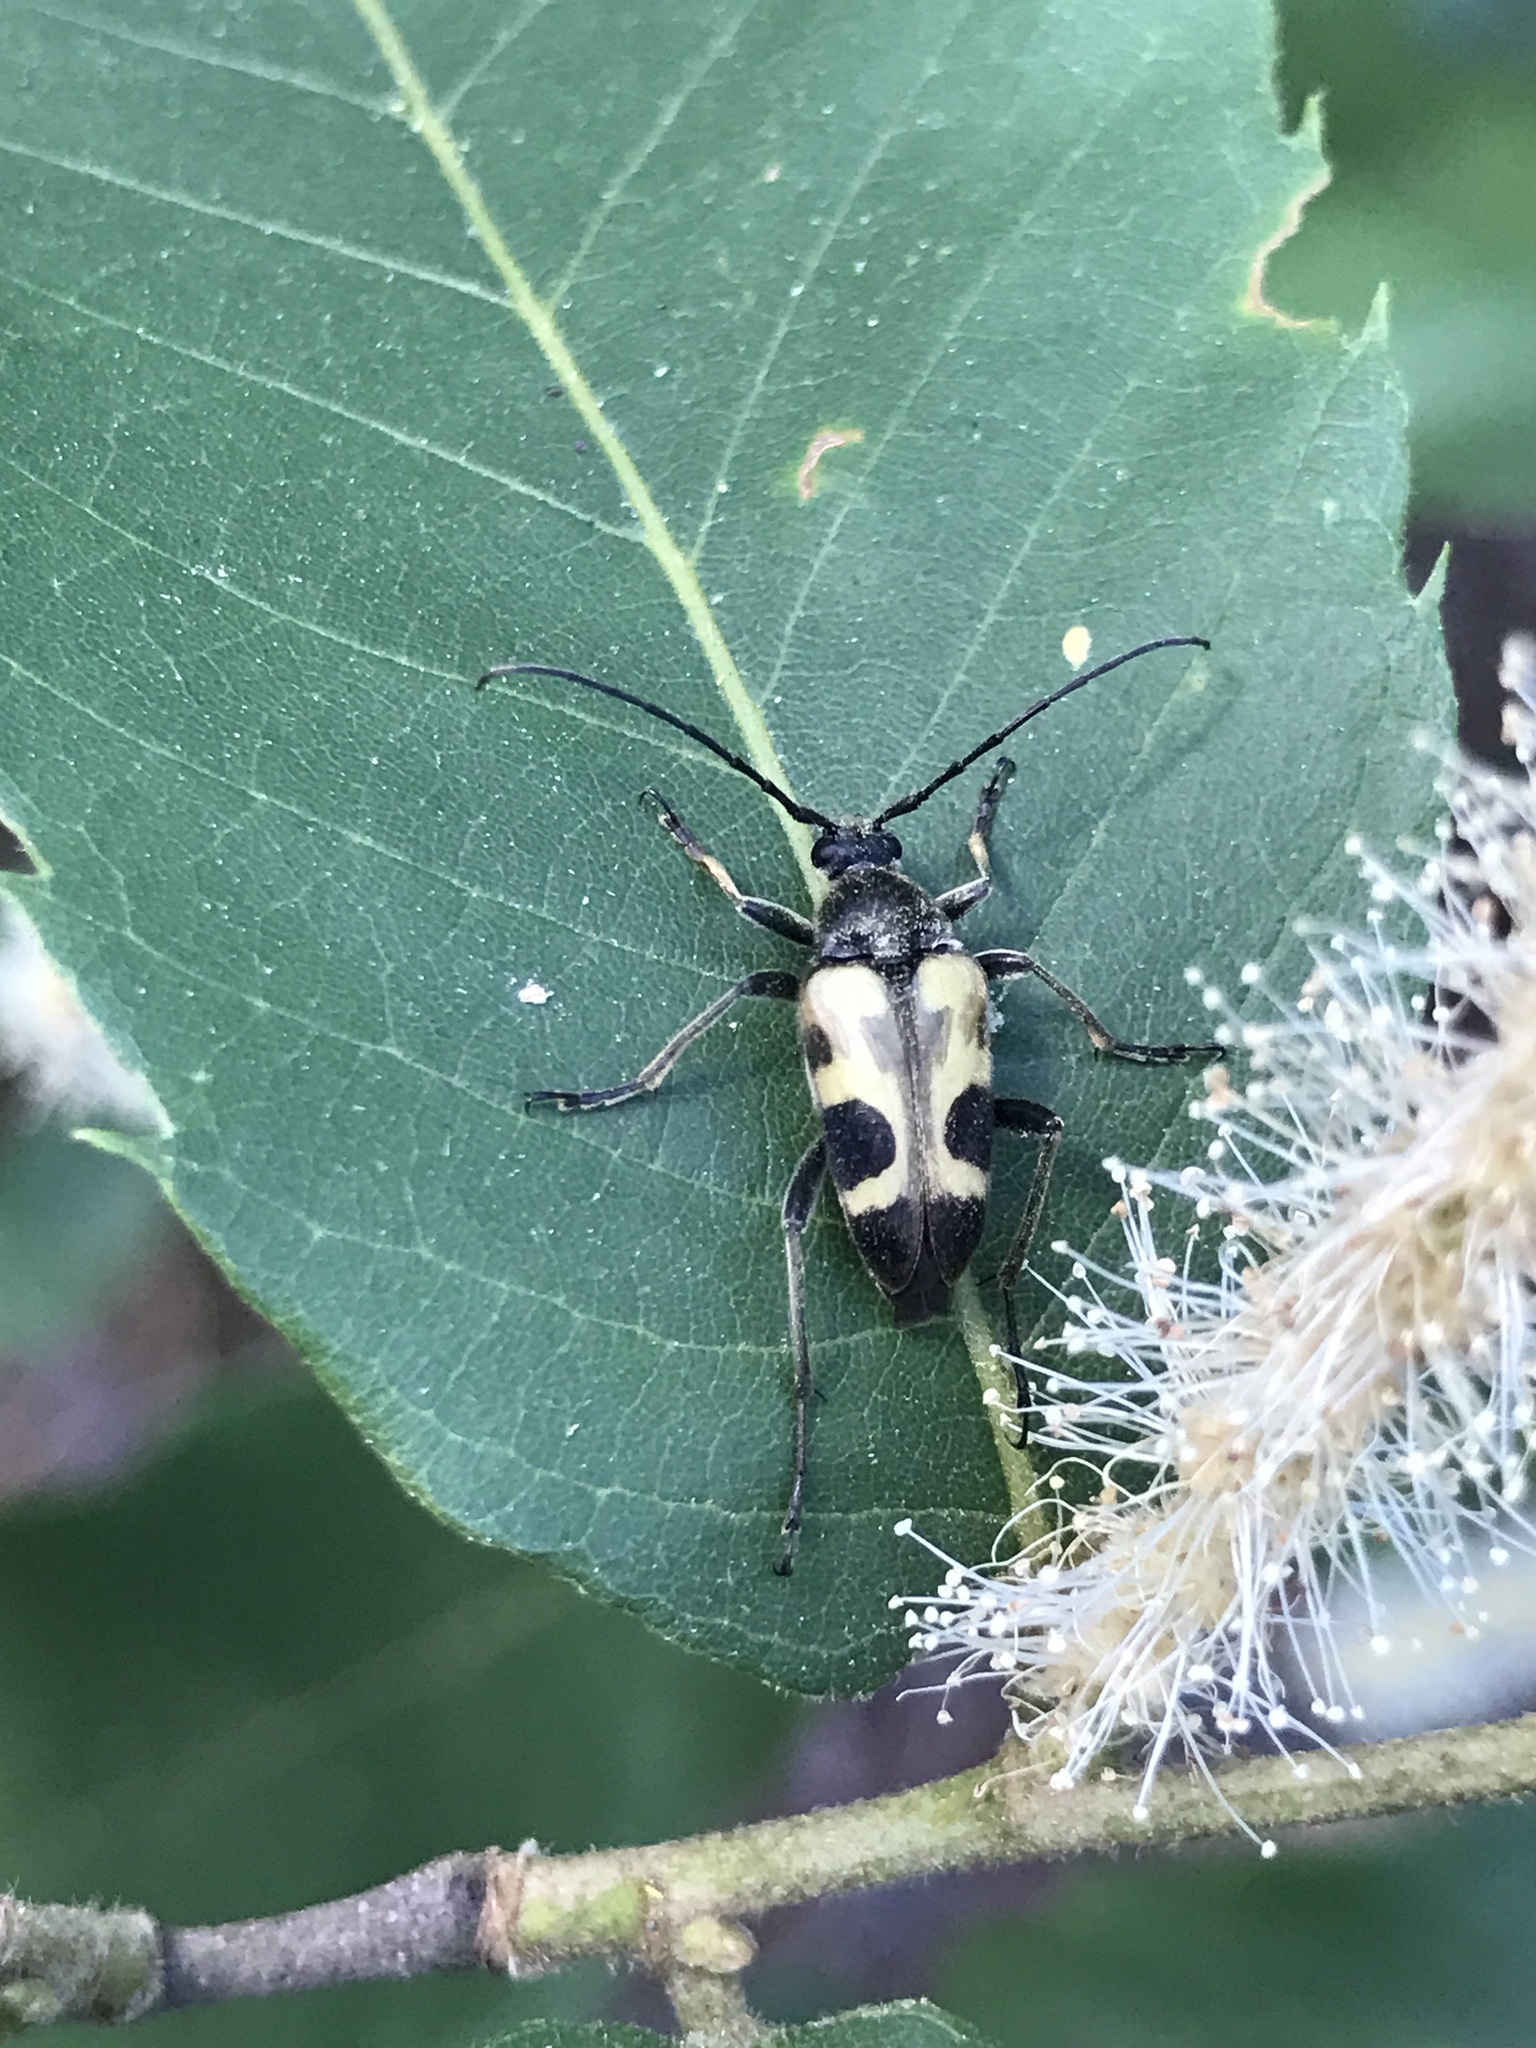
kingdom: Animalia
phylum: Arthropoda
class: Insecta
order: Coleoptera
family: Cerambycidae
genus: Judolia
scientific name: Judolia cordifera
